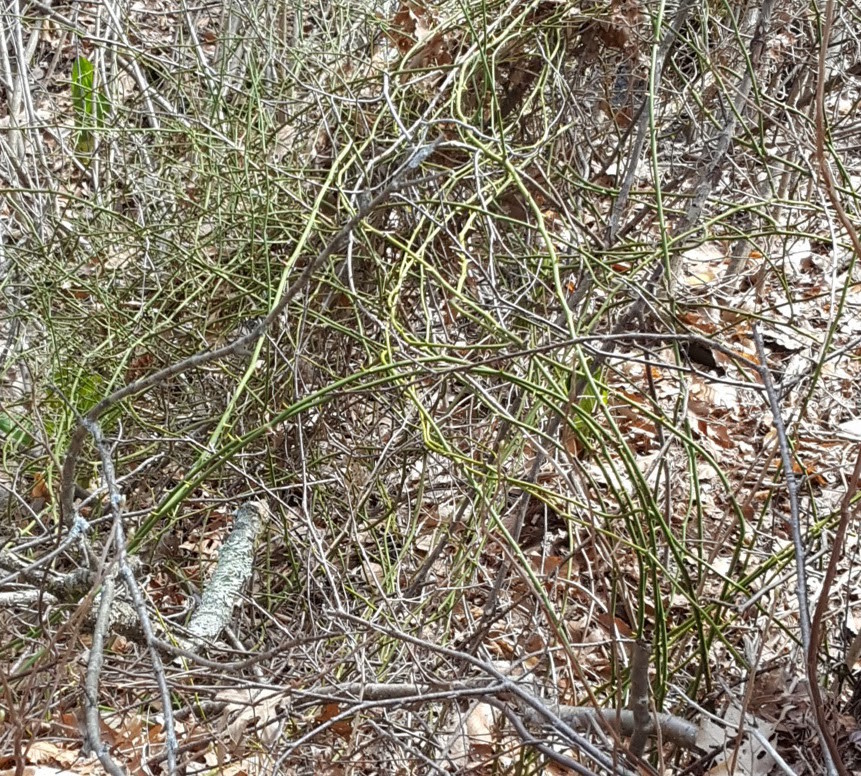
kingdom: Plantae
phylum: Tracheophyta
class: Liliopsida
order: Liliales
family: Smilacaceae
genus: Smilax
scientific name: Smilax rotundifolia
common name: Bullbriar
